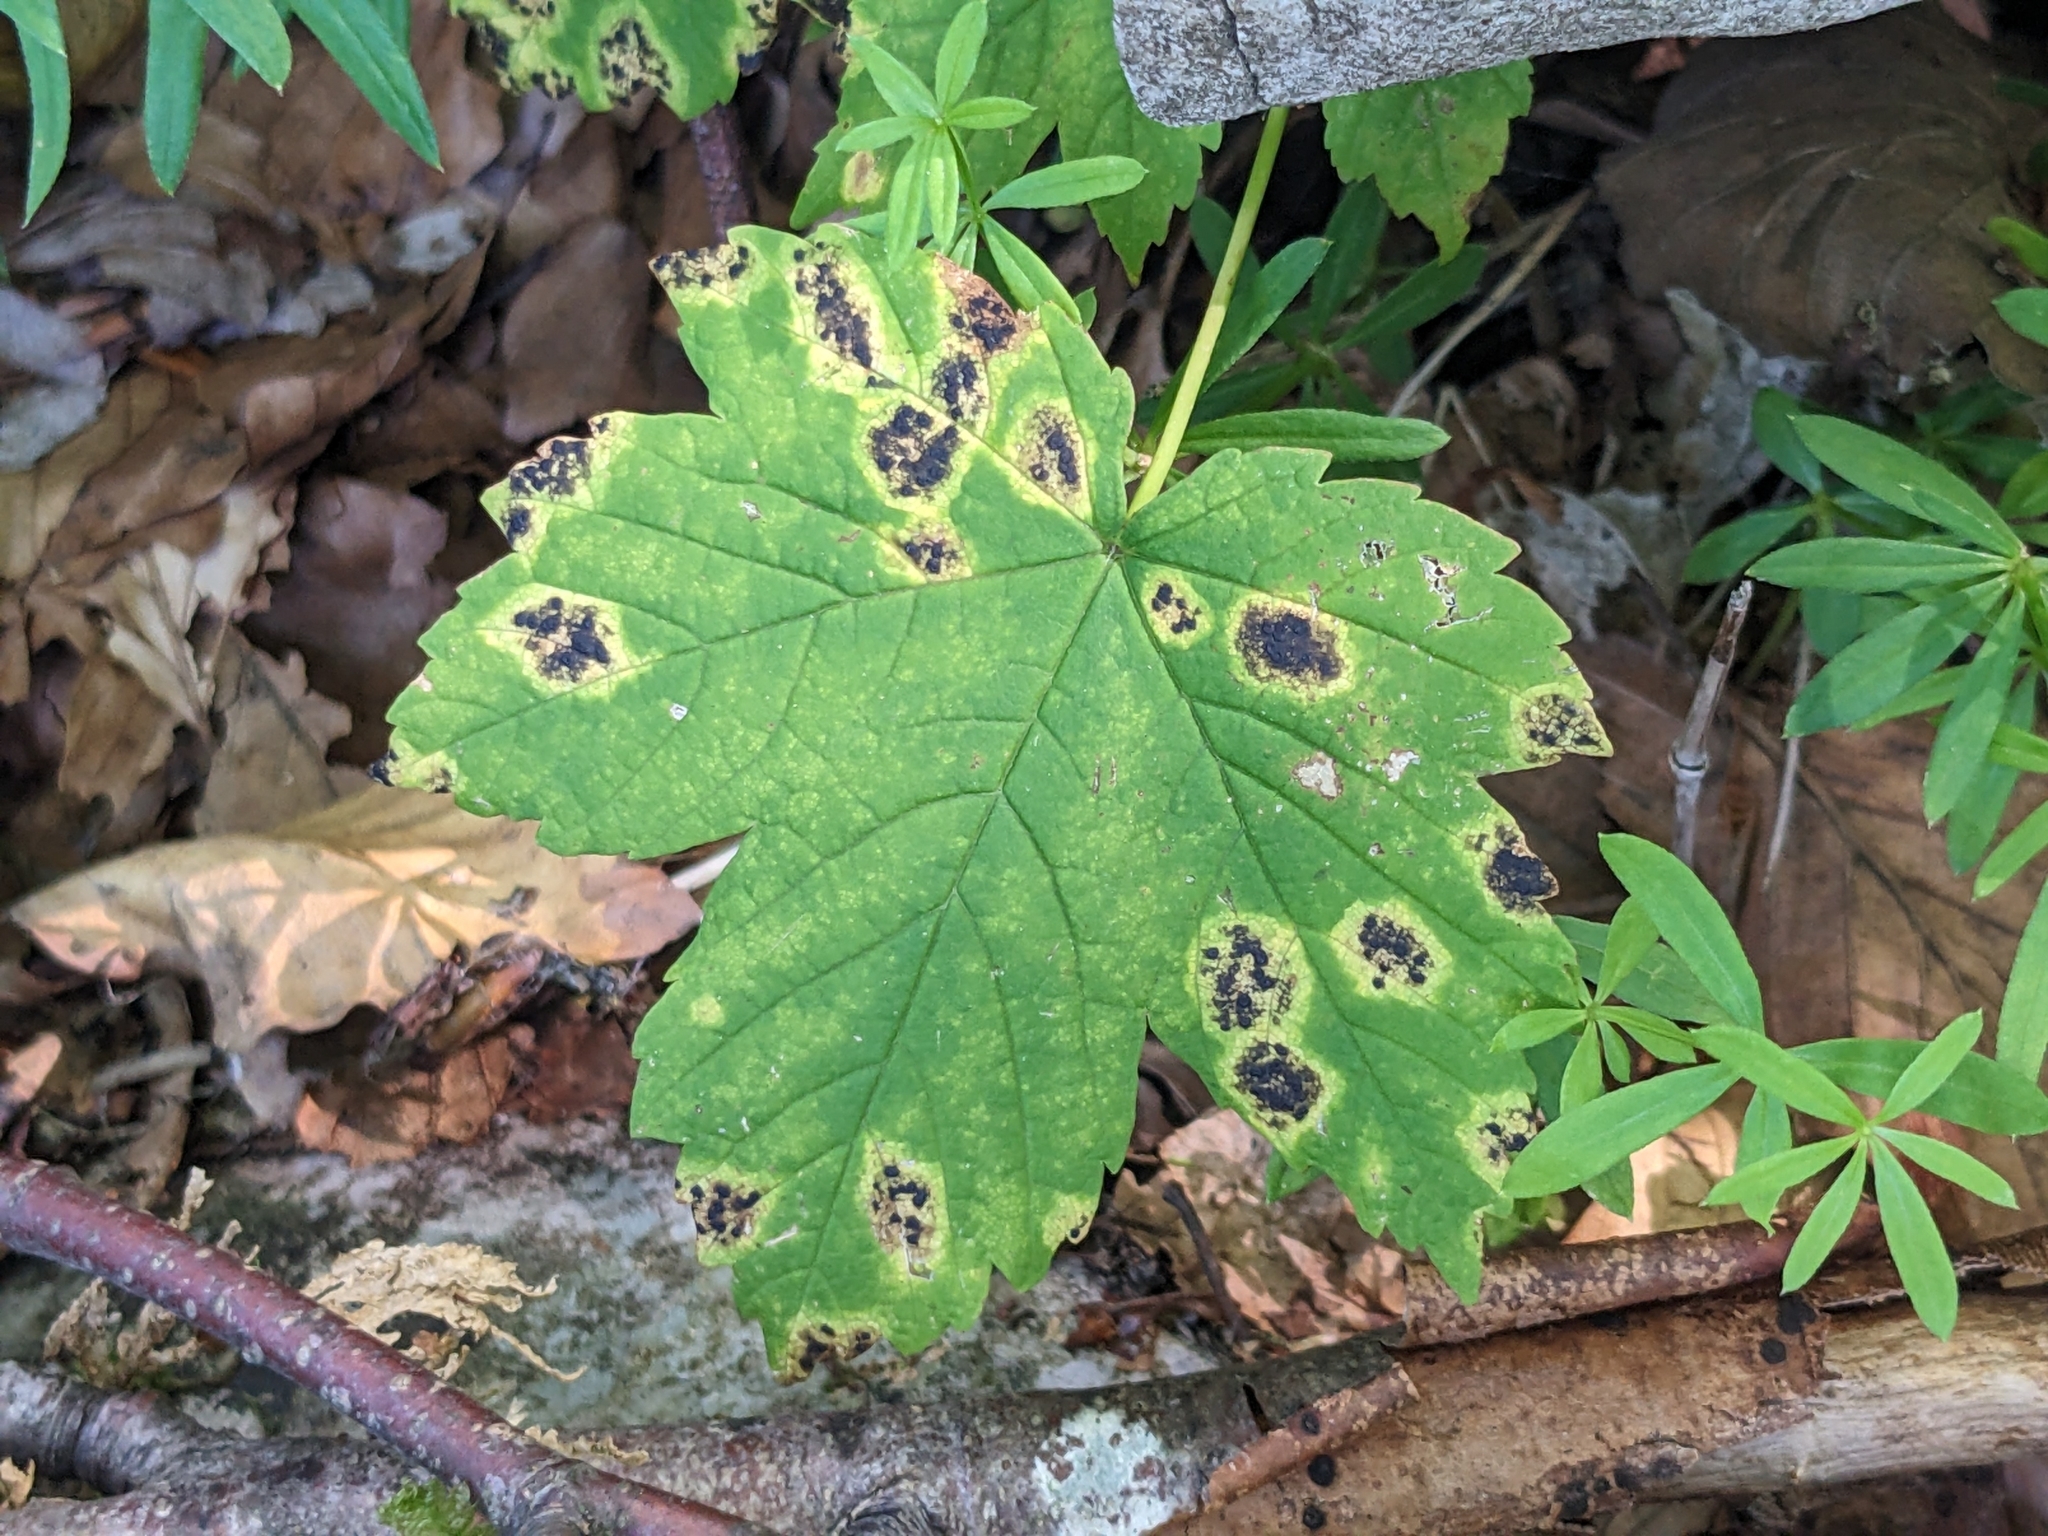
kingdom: Fungi
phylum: Ascomycota
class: Leotiomycetes
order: Rhytismatales
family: Rhytismataceae
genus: Rhytisma
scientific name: Rhytisma acerinum
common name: European tar spot
